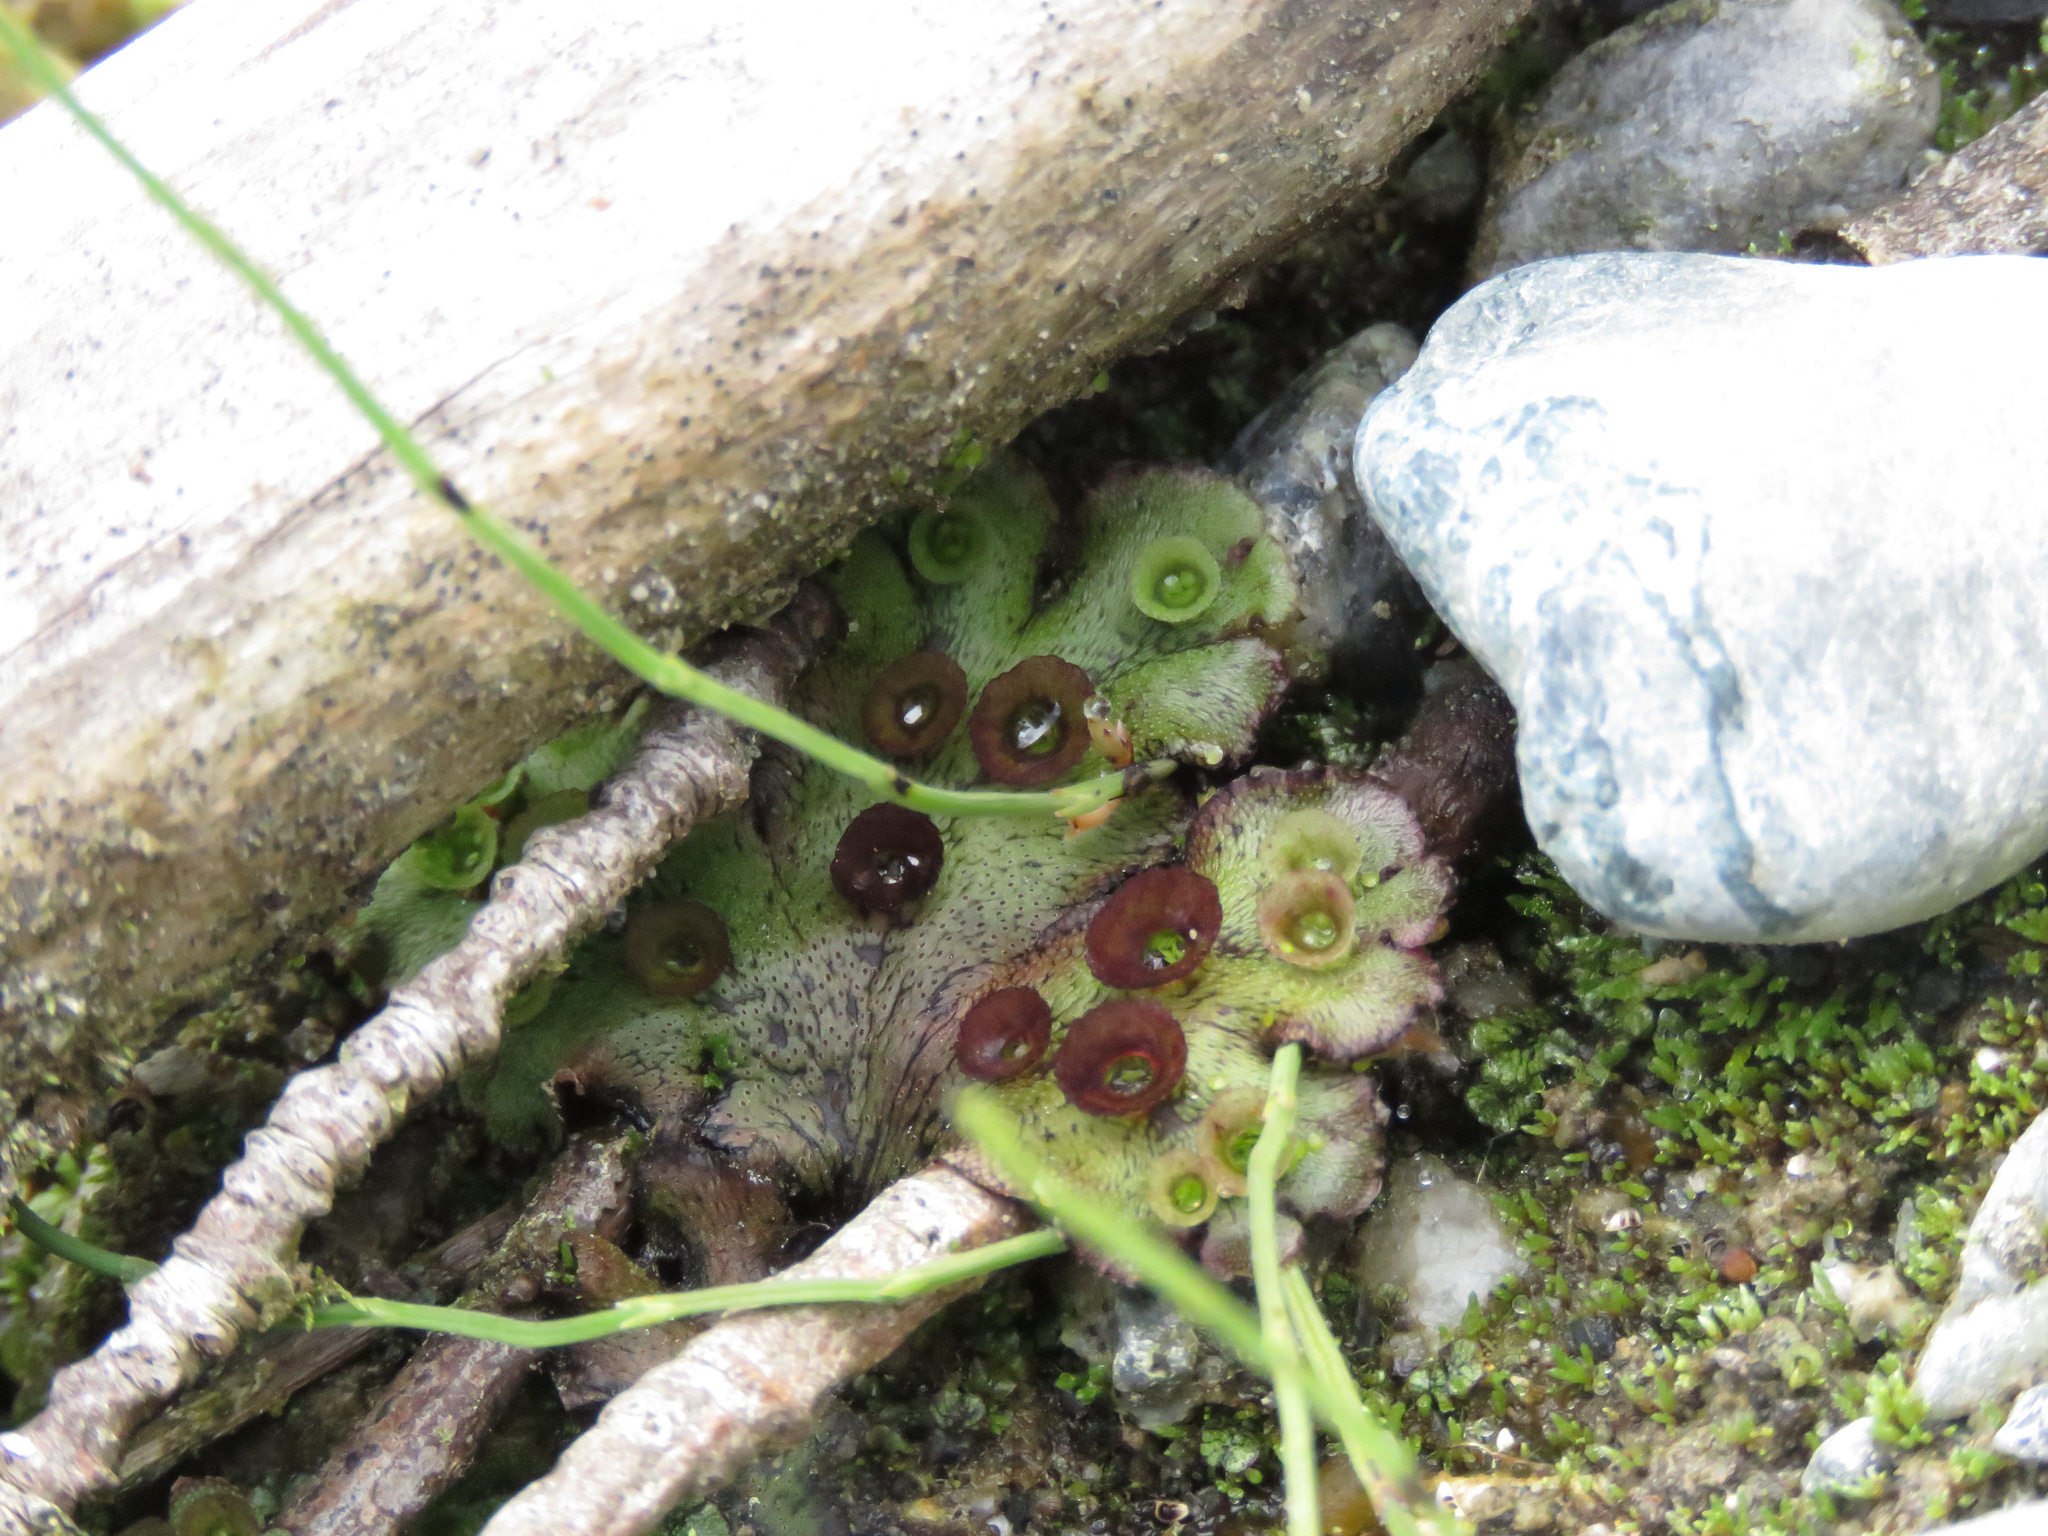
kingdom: Plantae
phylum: Marchantiophyta
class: Marchantiopsida
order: Marchantiales
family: Marchantiaceae
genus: Marchantia
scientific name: Marchantia polymorpha
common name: Common liverwort
